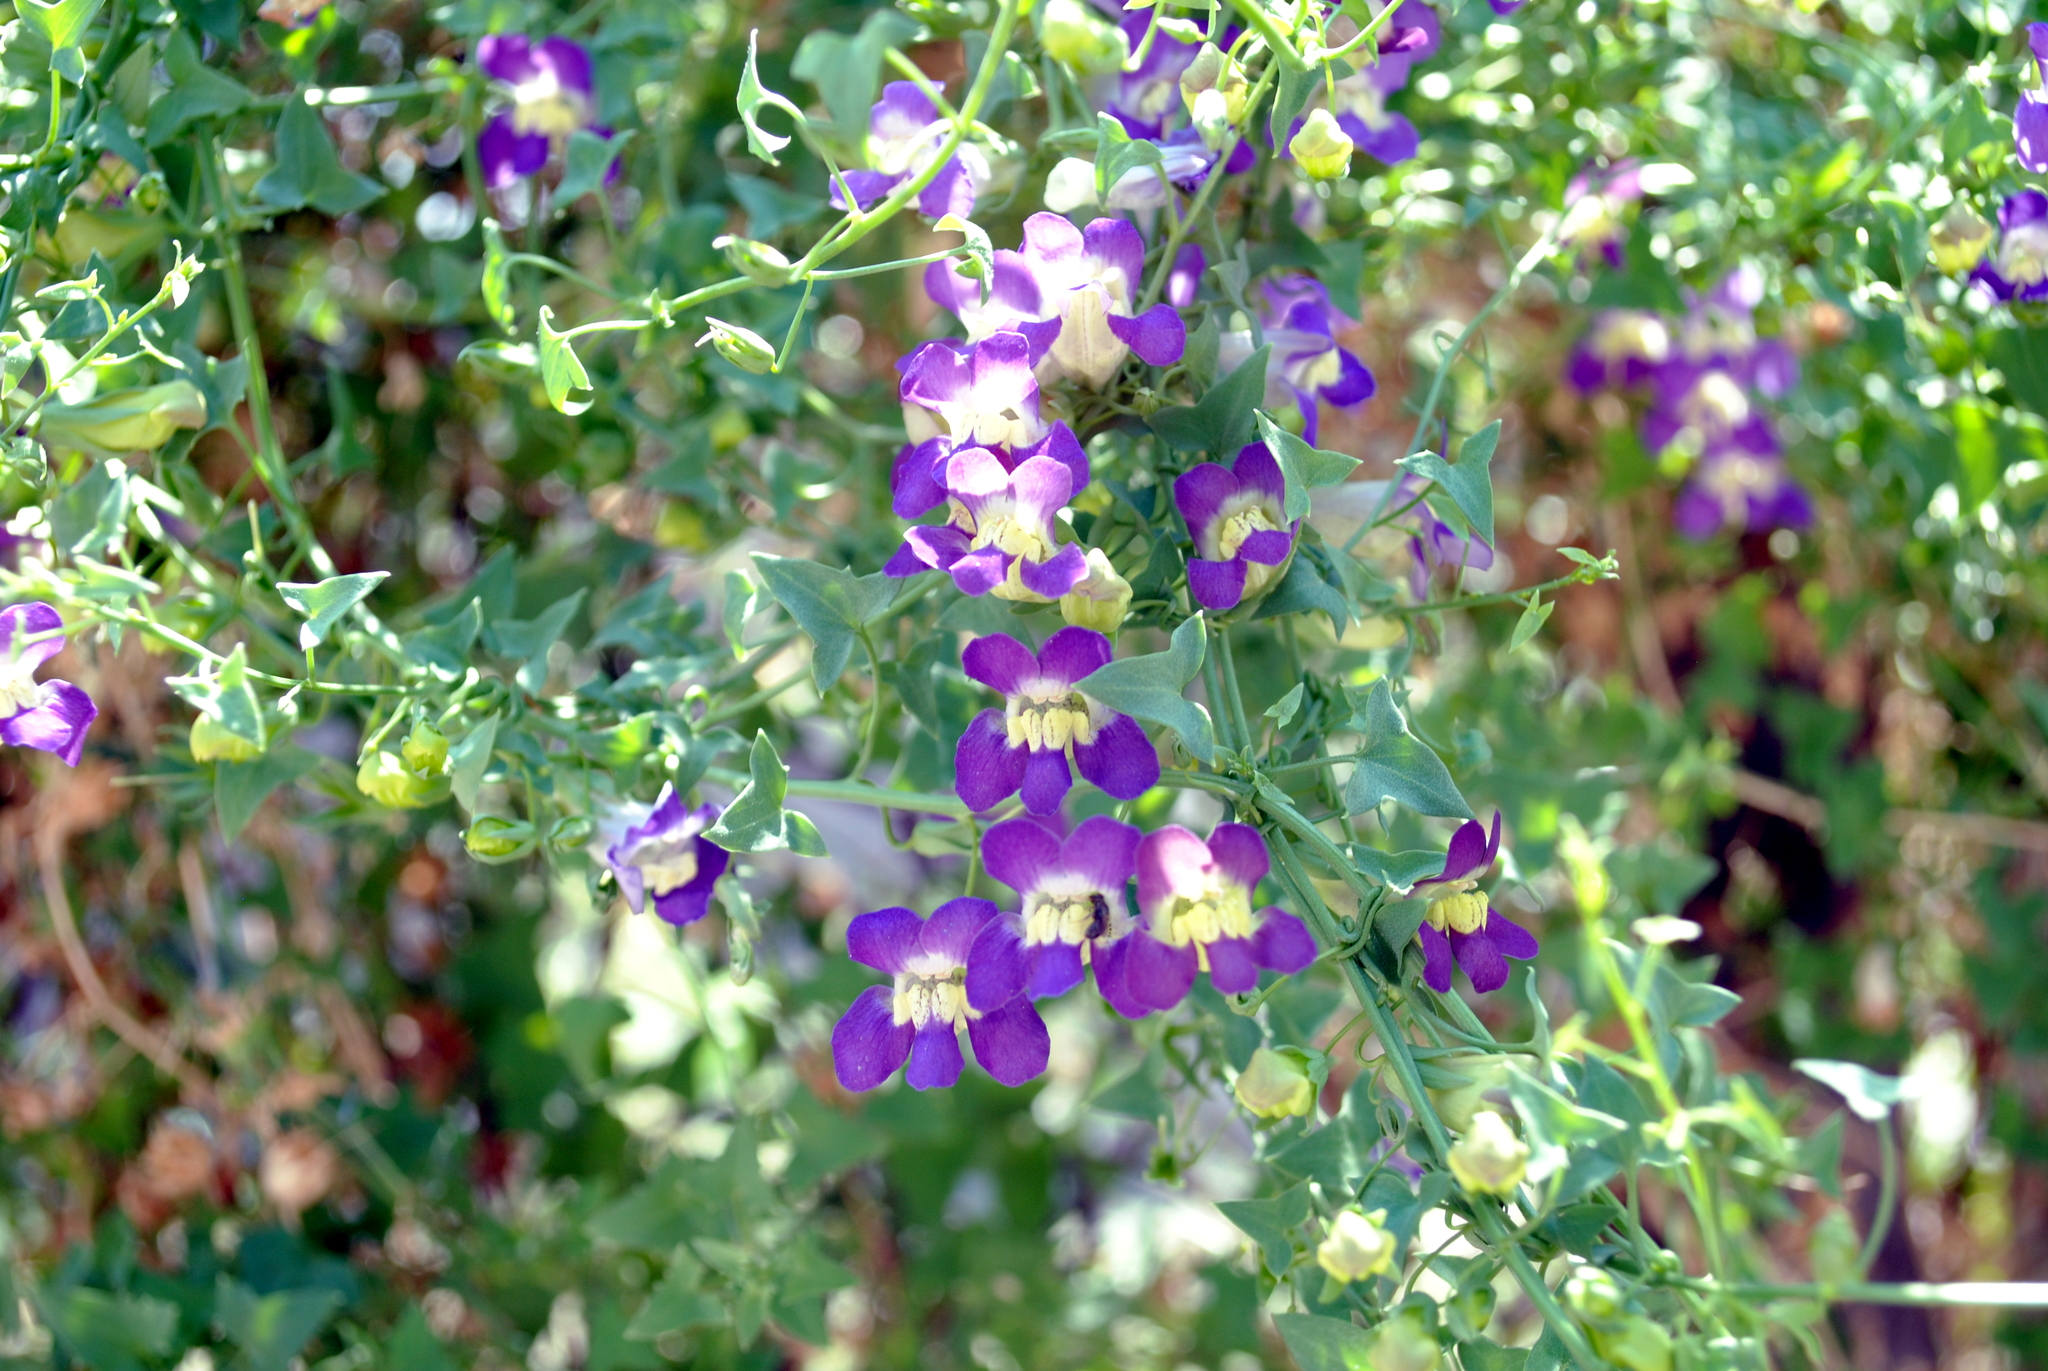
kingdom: Plantae
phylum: Tracheophyta
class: Magnoliopsida
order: Lamiales
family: Plantaginaceae
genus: Maurandella
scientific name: Maurandella antirrhiniflora
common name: Violet twining-snapdragon
